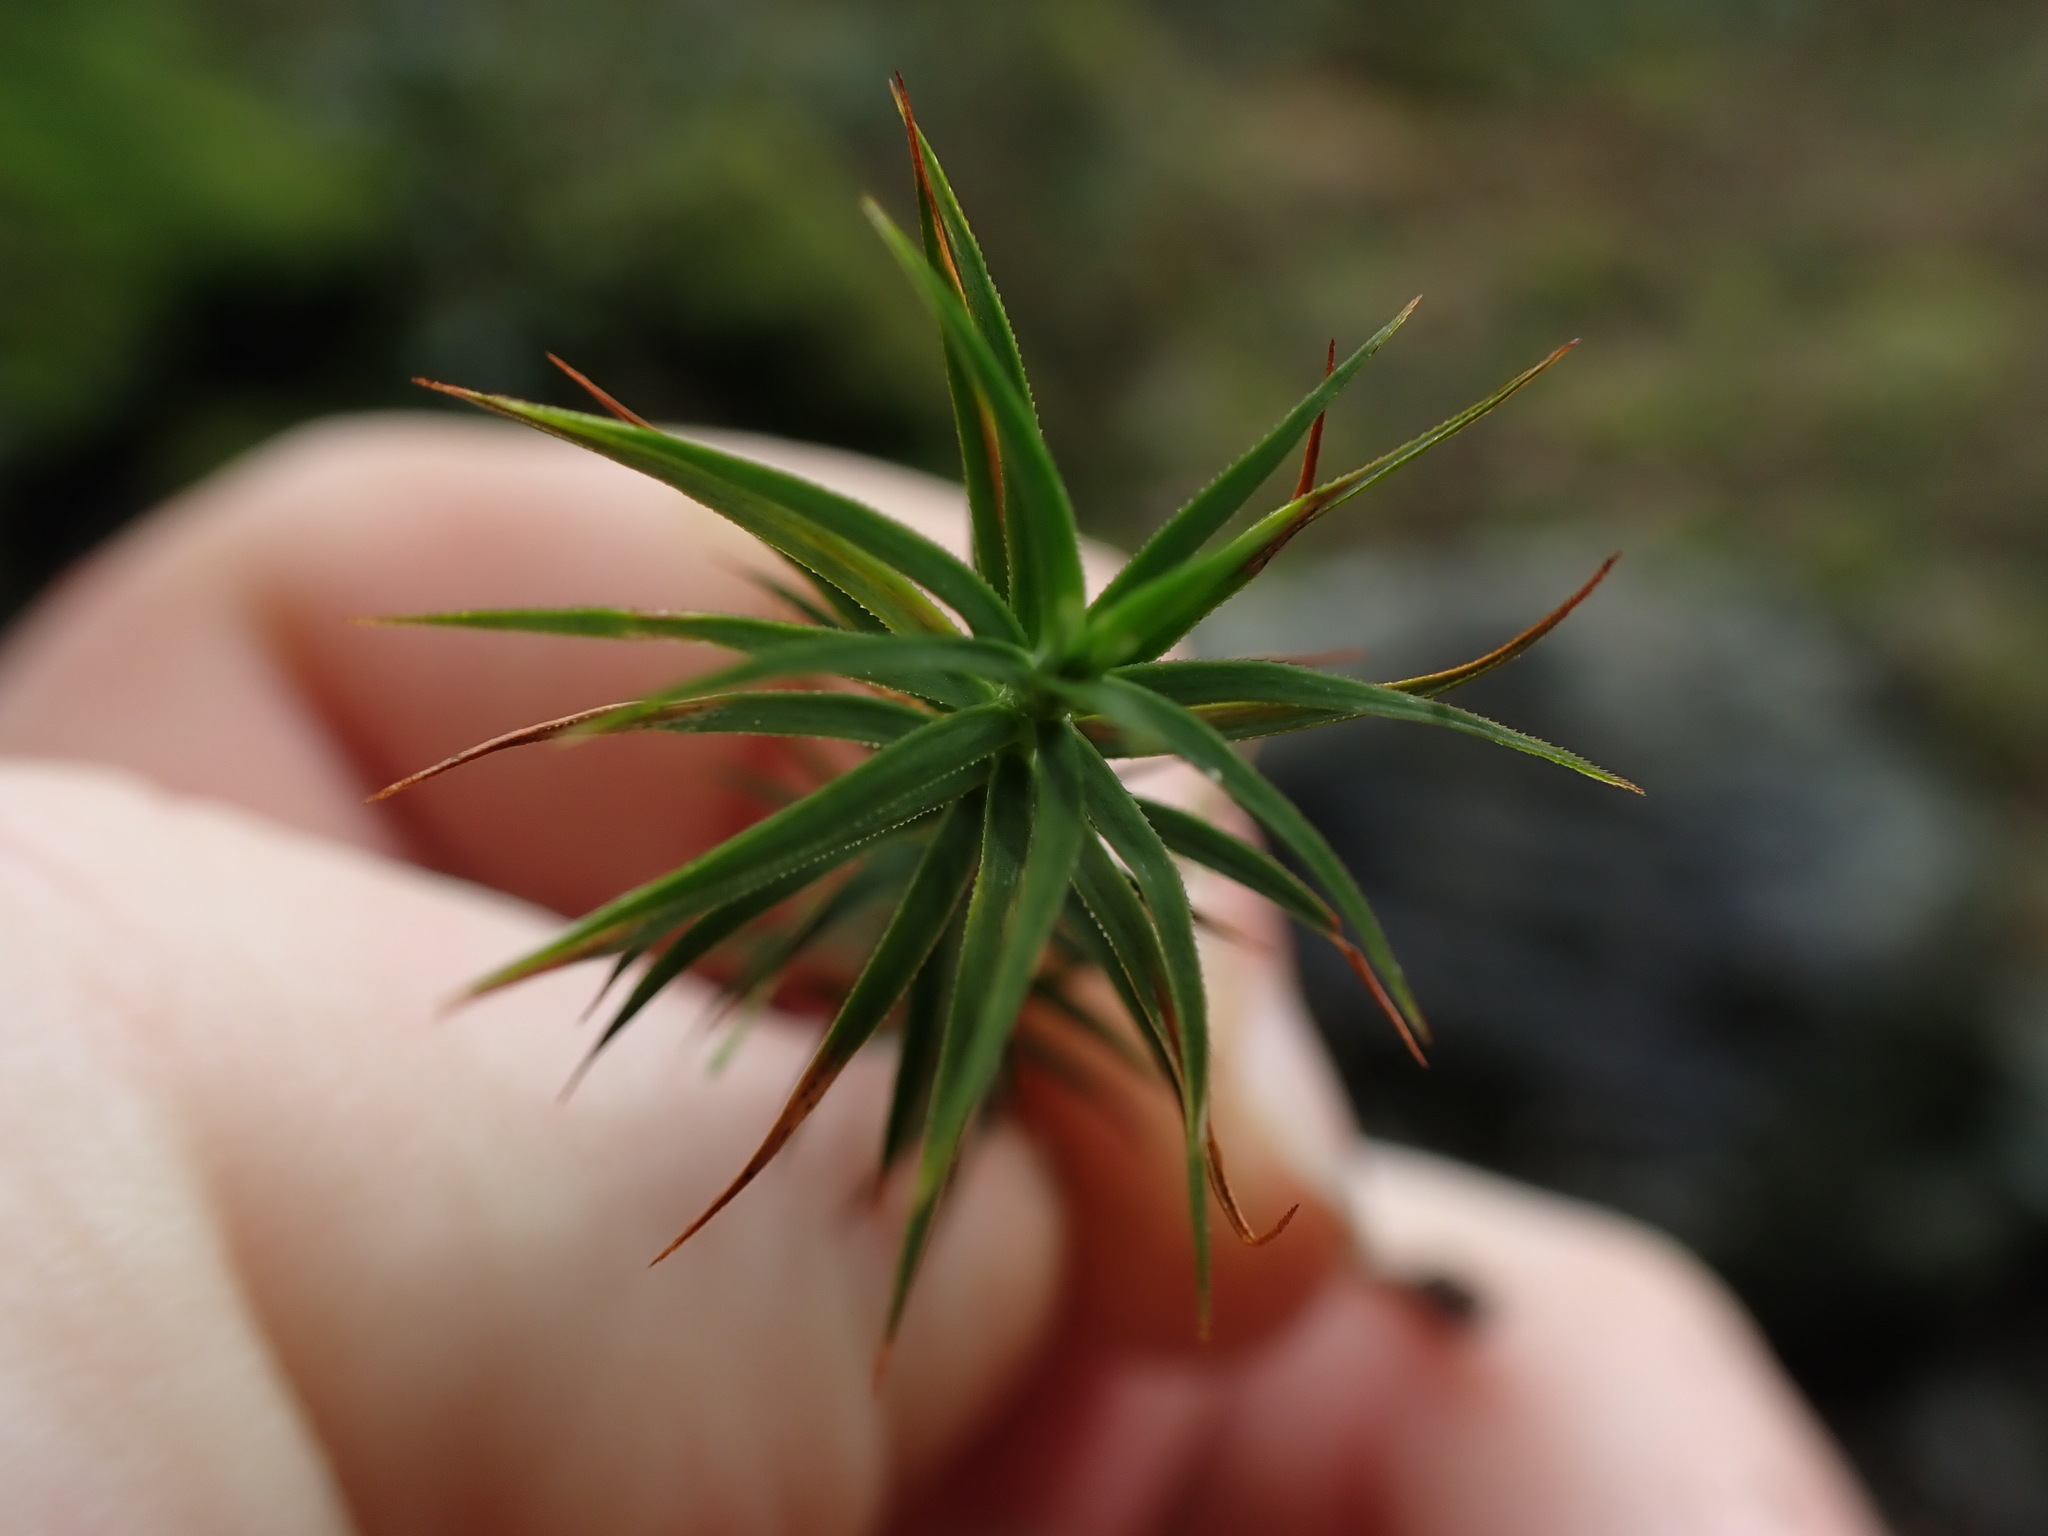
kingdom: Plantae
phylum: Bryophyta
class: Polytrichopsida
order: Polytrichales
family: Polytrichaceae
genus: Polytrichum
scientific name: Polytrichum commune
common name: Common haircap
